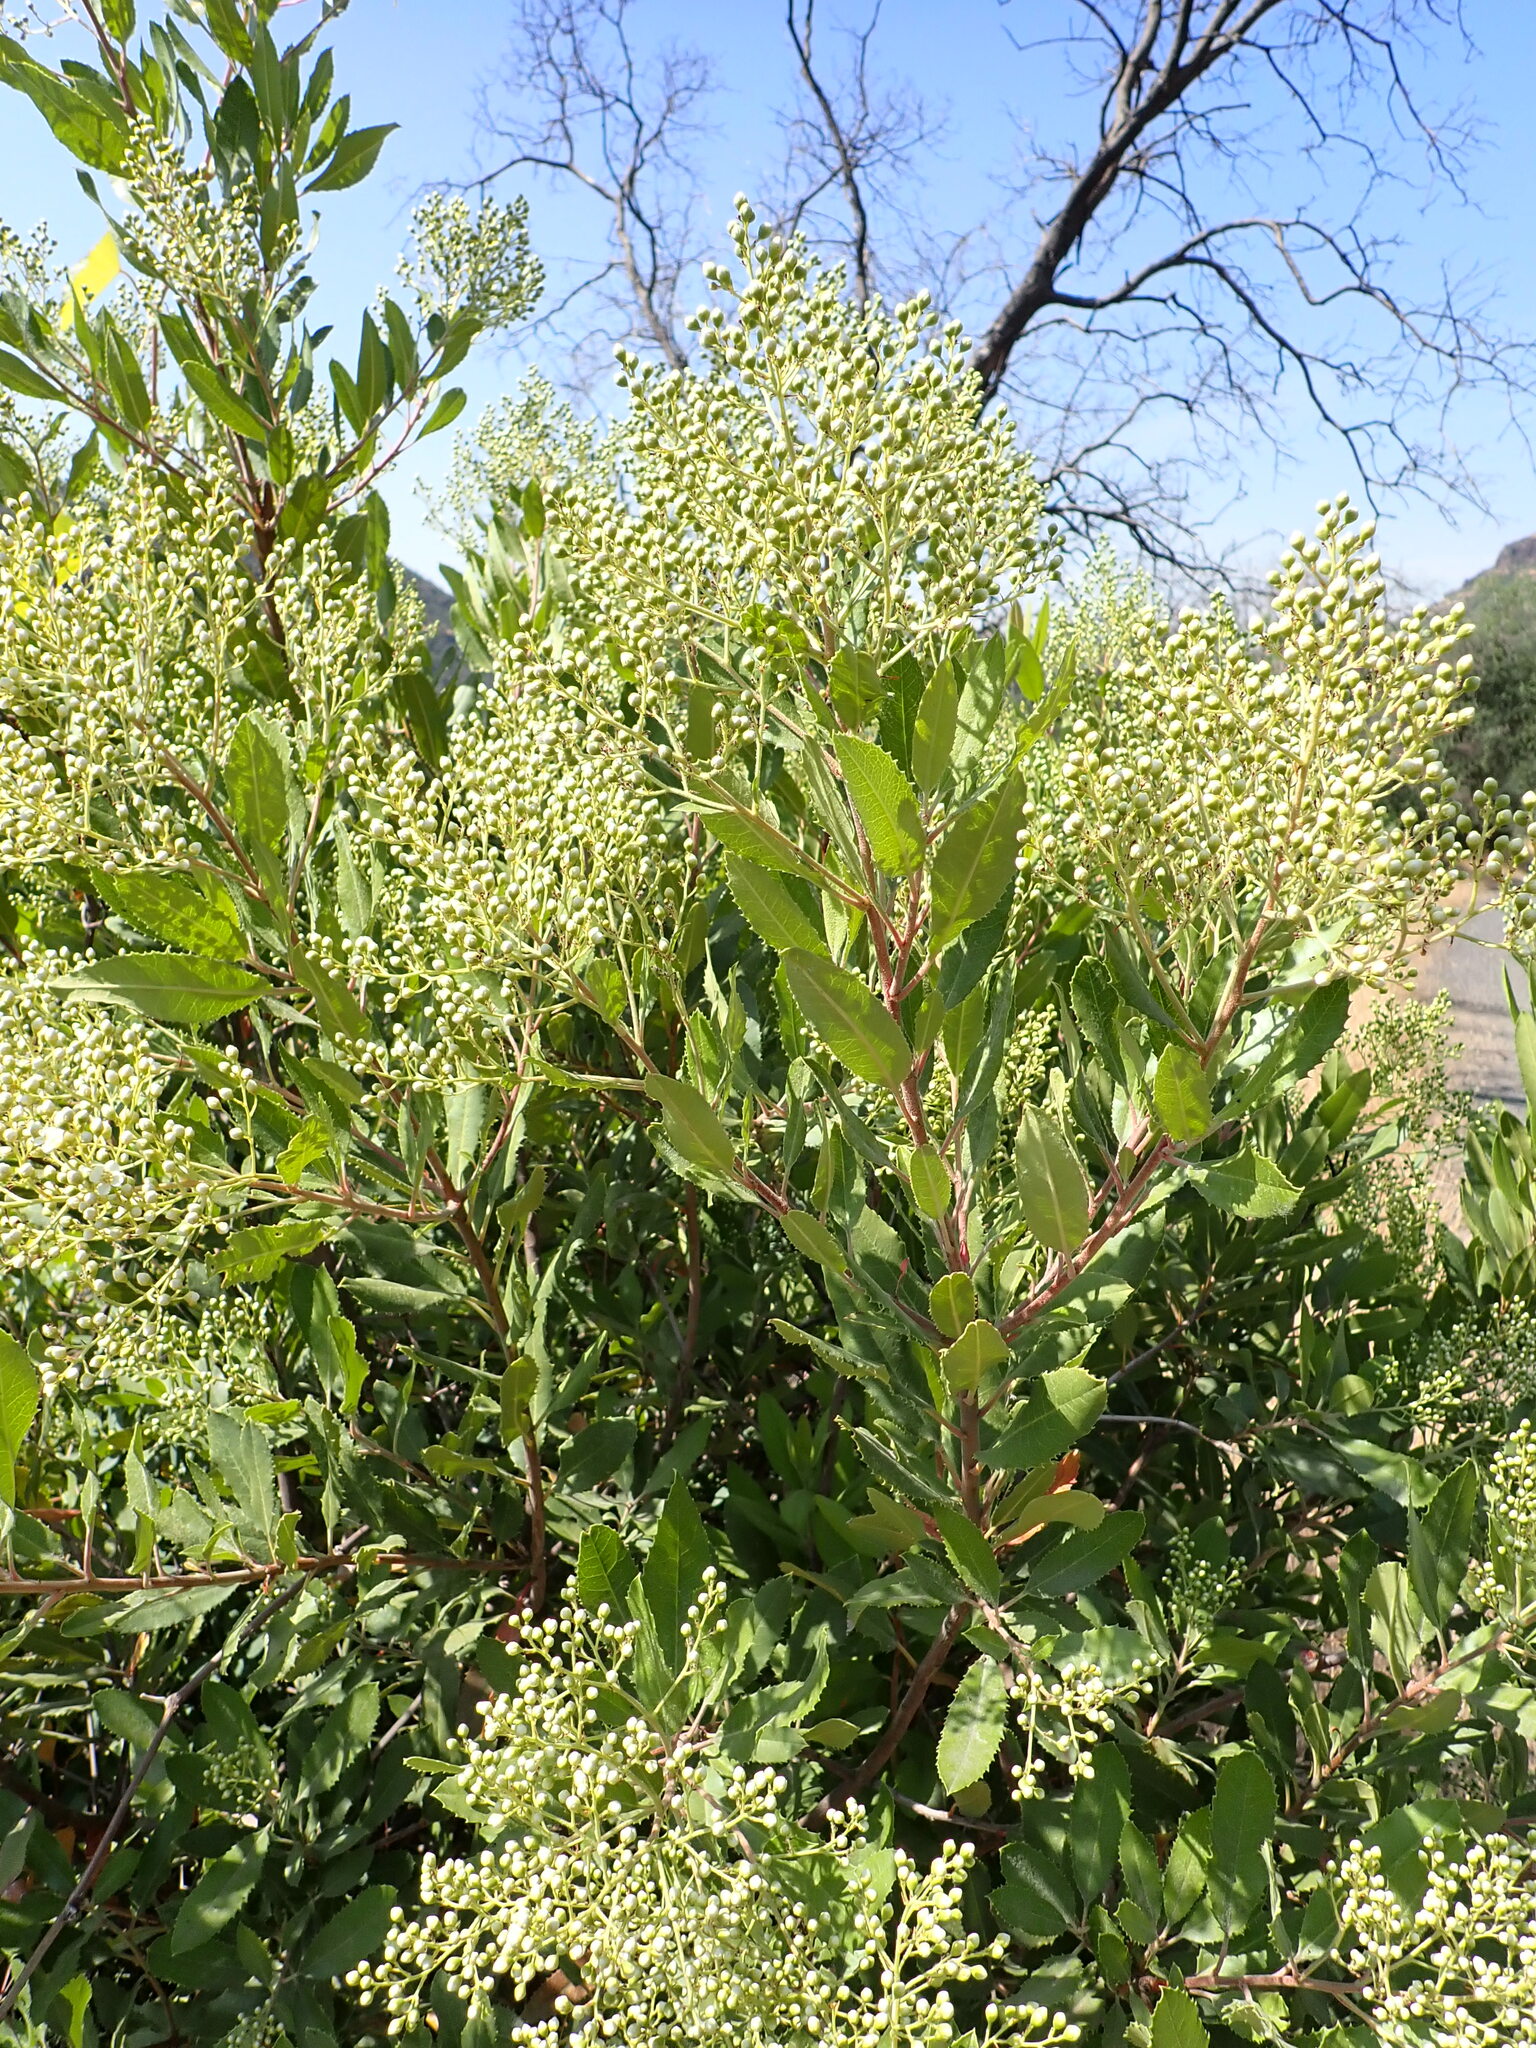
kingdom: Plantae
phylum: Tracheophyta
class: Magnoliopsida
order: Rosales
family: Rosaceae
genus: Heteromeles
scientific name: Heteromeles arbutifolia
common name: California-holly
